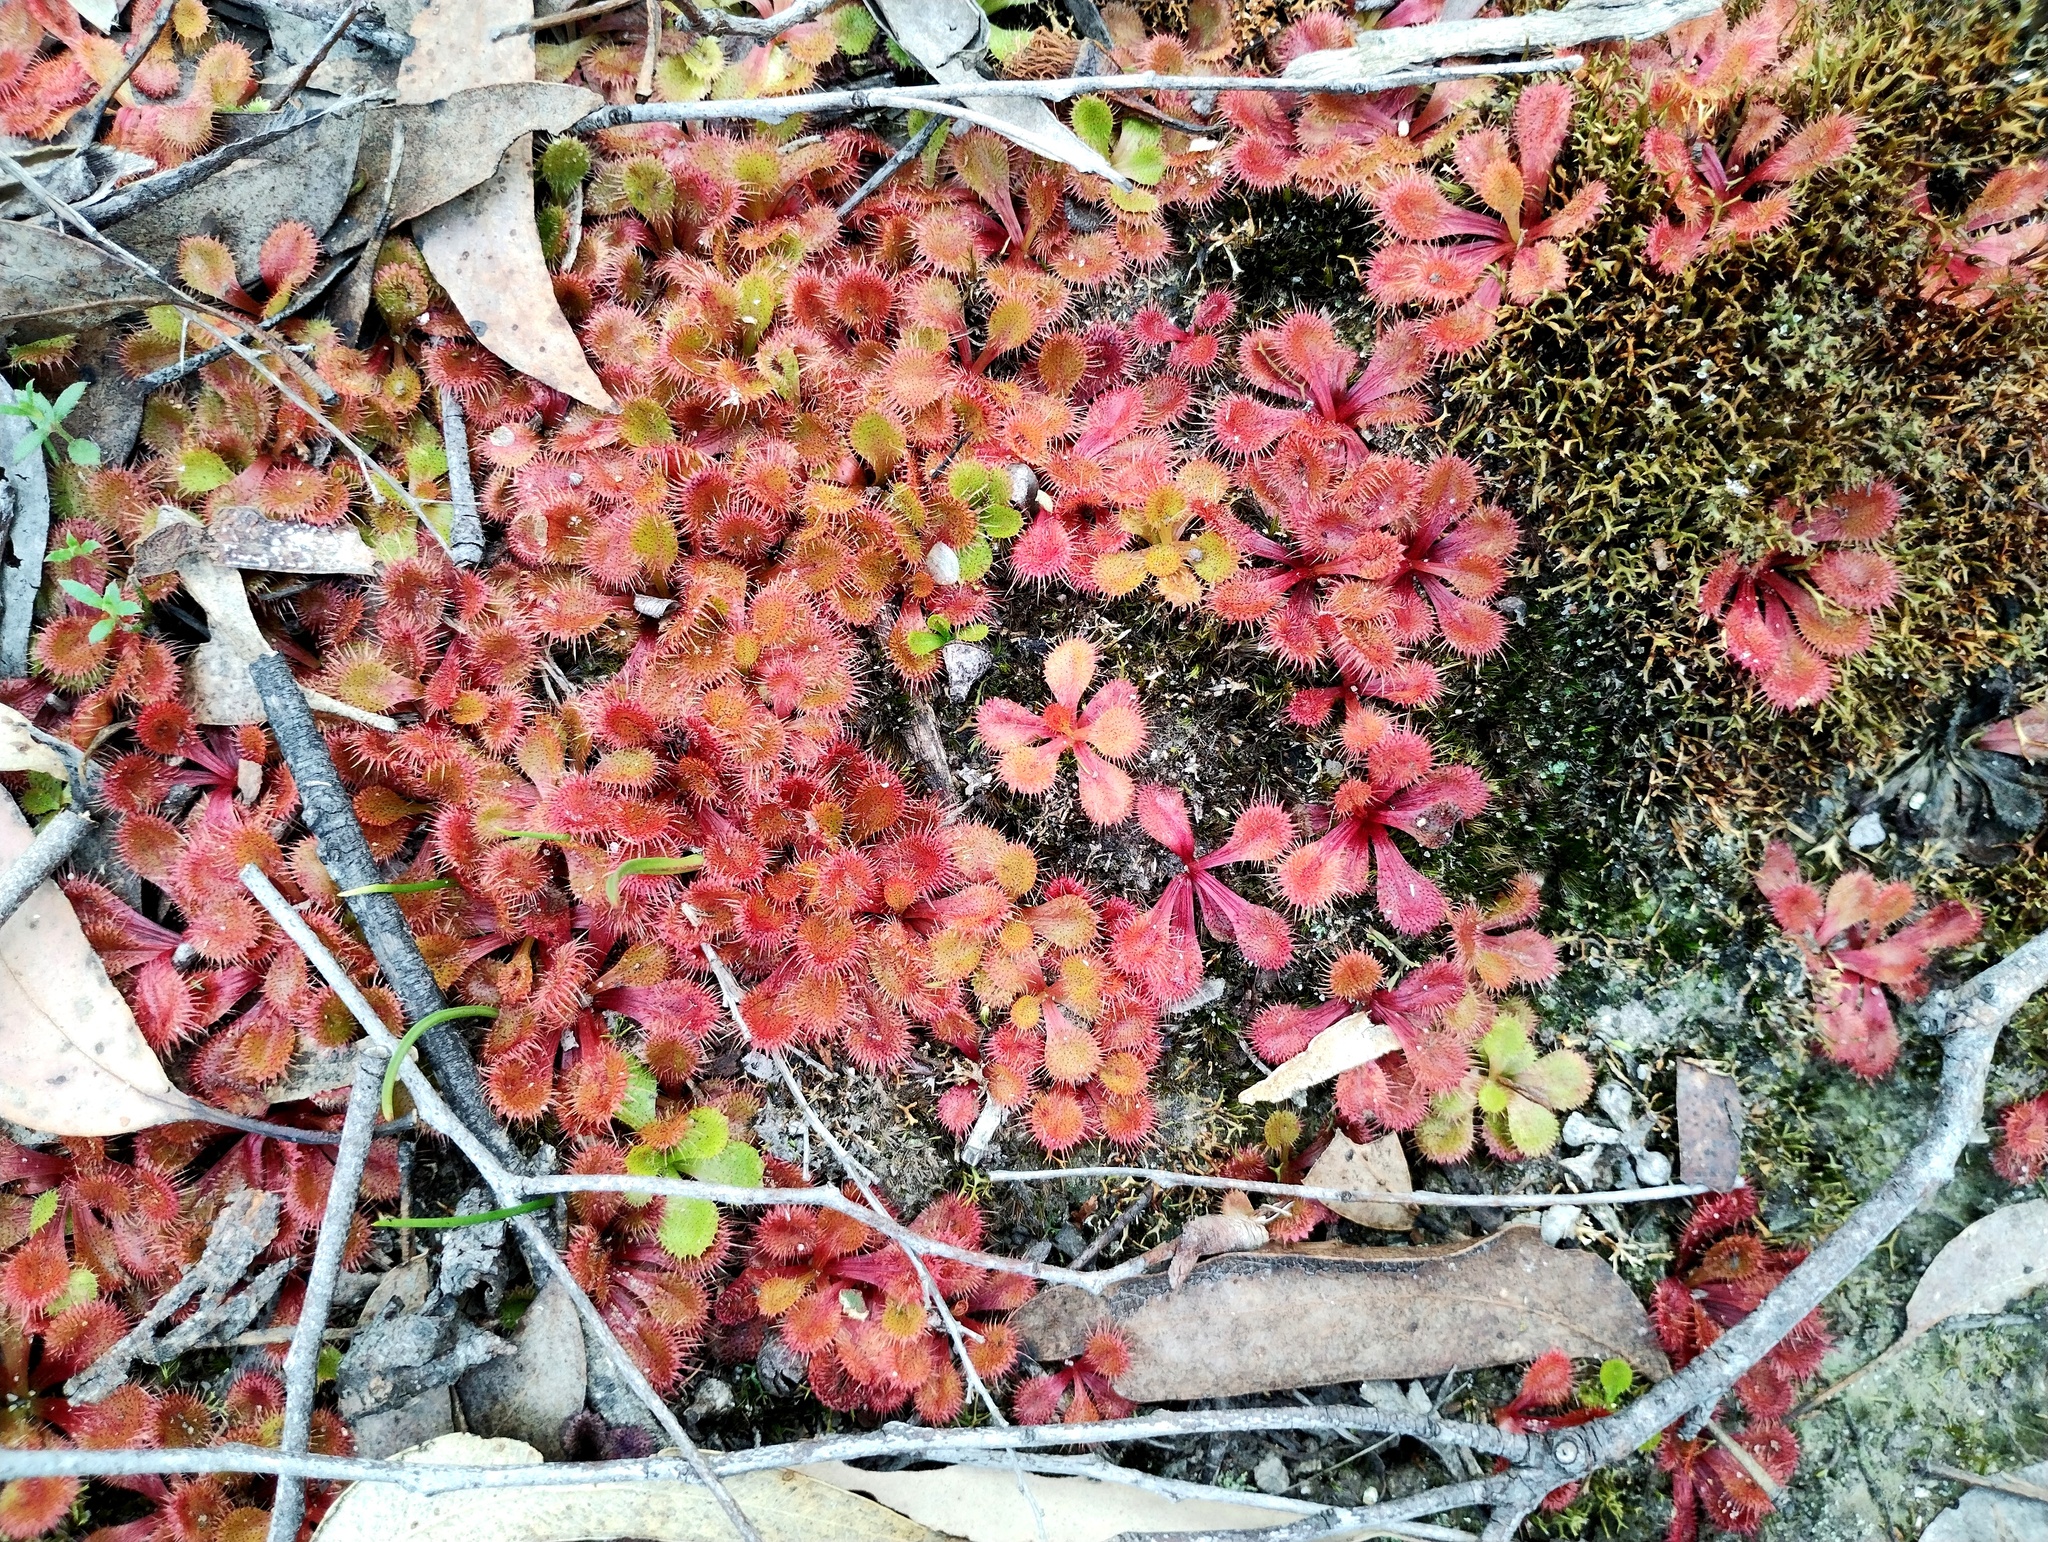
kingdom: Plantae
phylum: Tracheophyta
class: Magnoliopsida
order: Caryophyllales
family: Droseraceae
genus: Drosera
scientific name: Drosera aberrans
